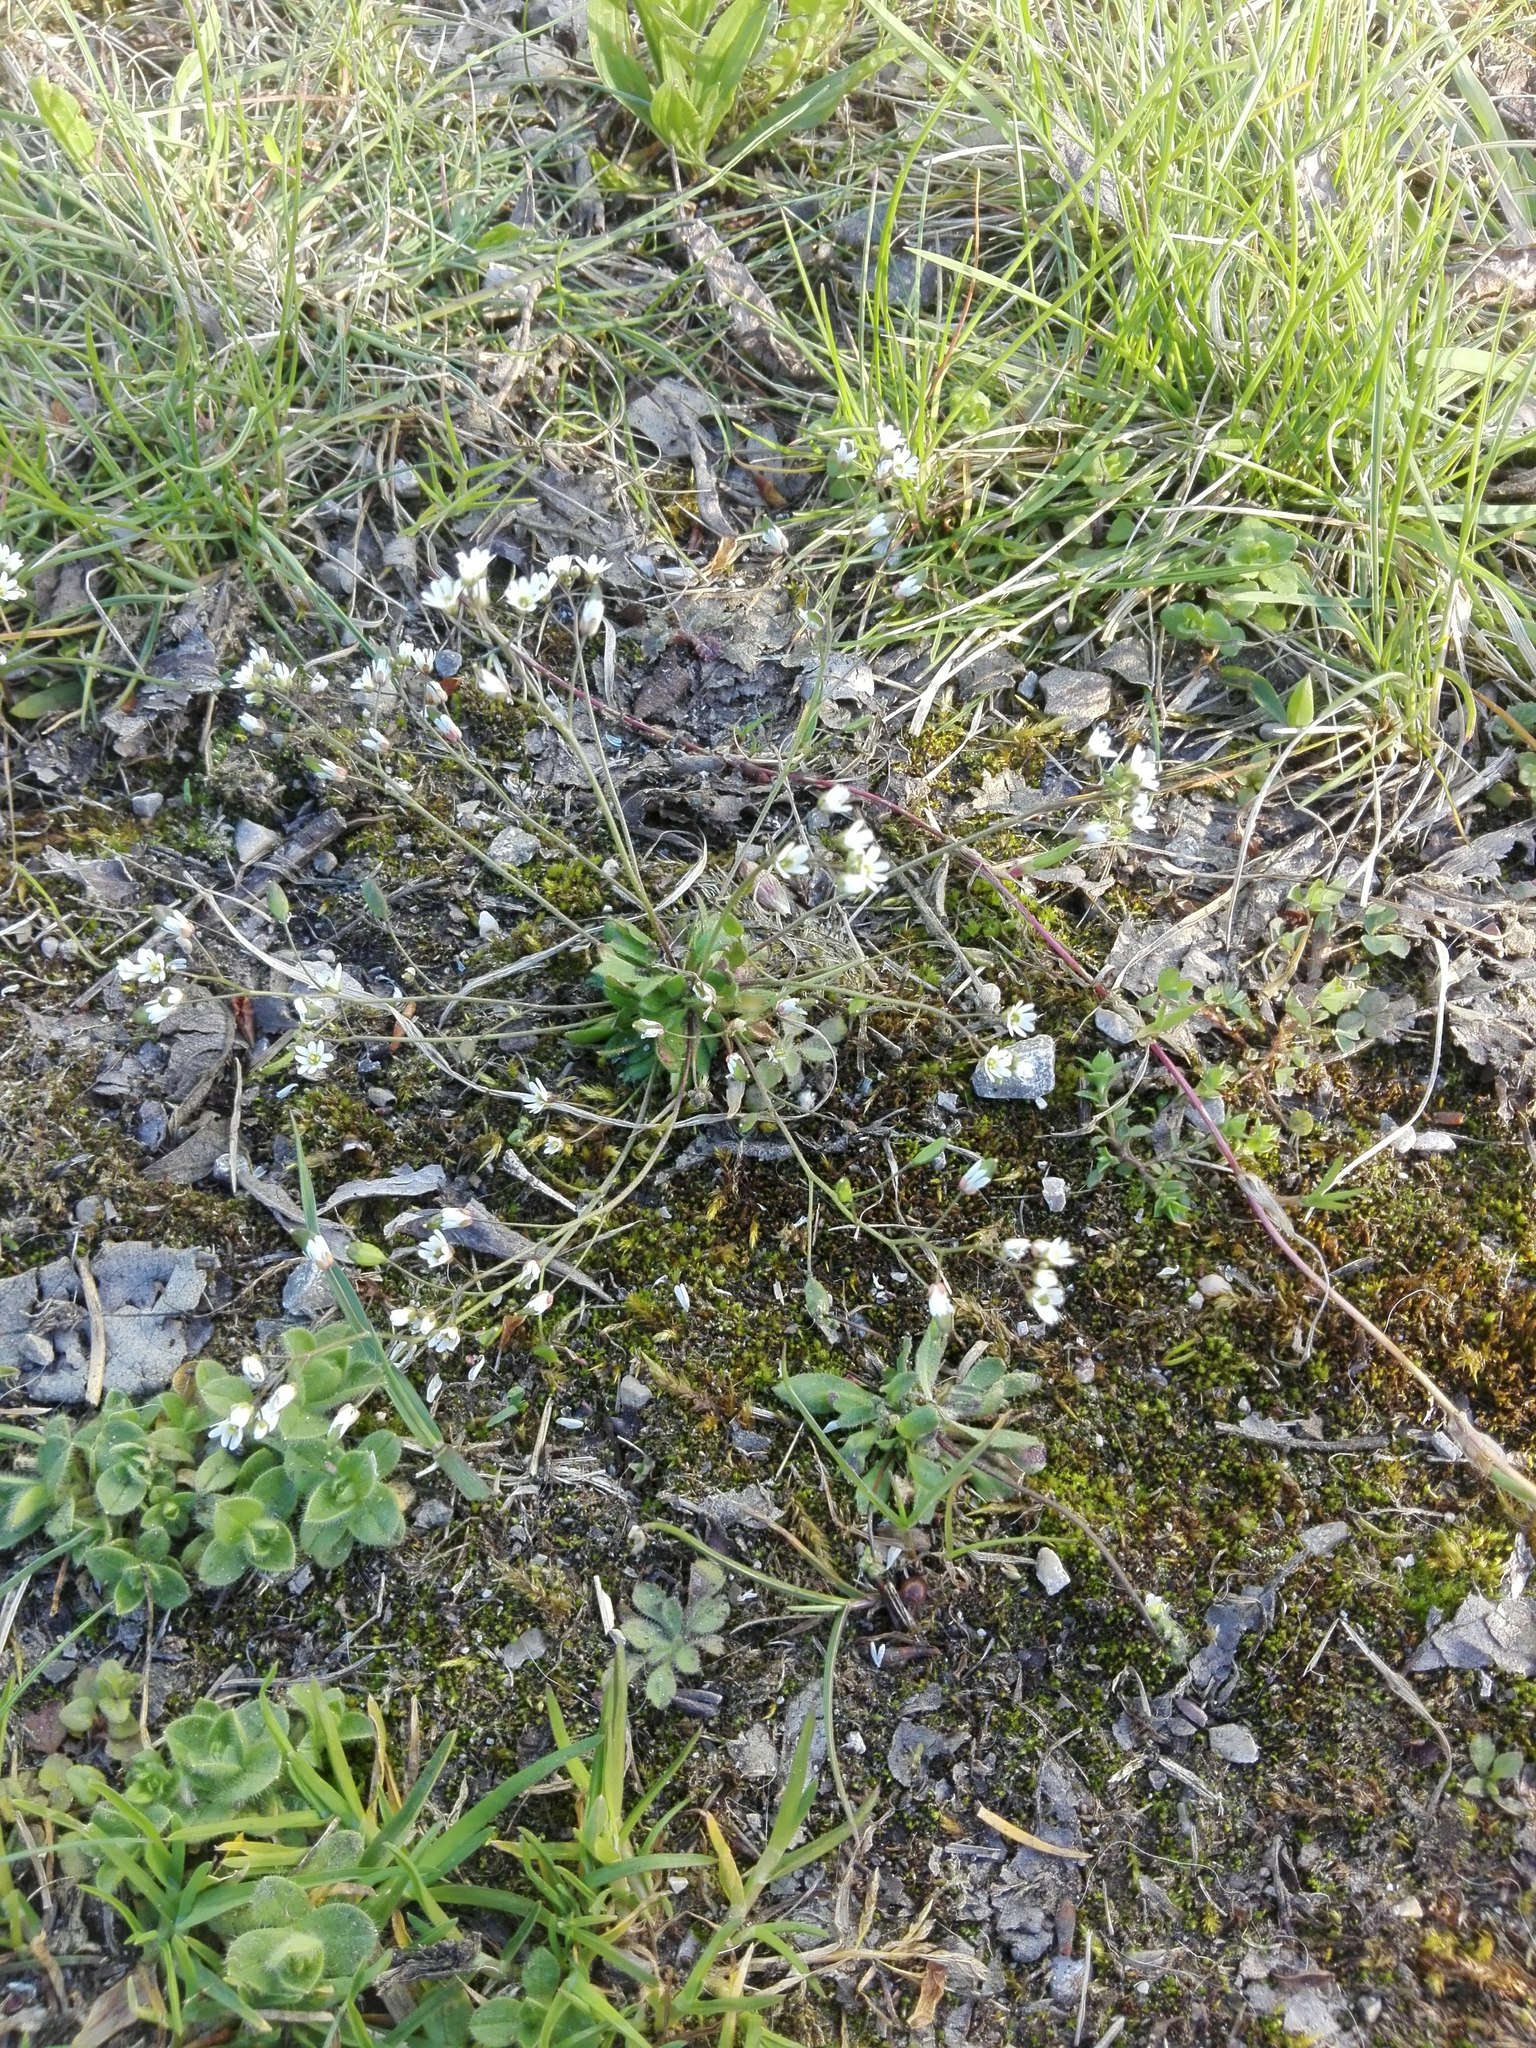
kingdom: Plantae
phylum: Tracheophyta
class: Magnoliopsida
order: Brassicales
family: Brassicaceae
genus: Draba
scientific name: Draba verna
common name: Spring draba
